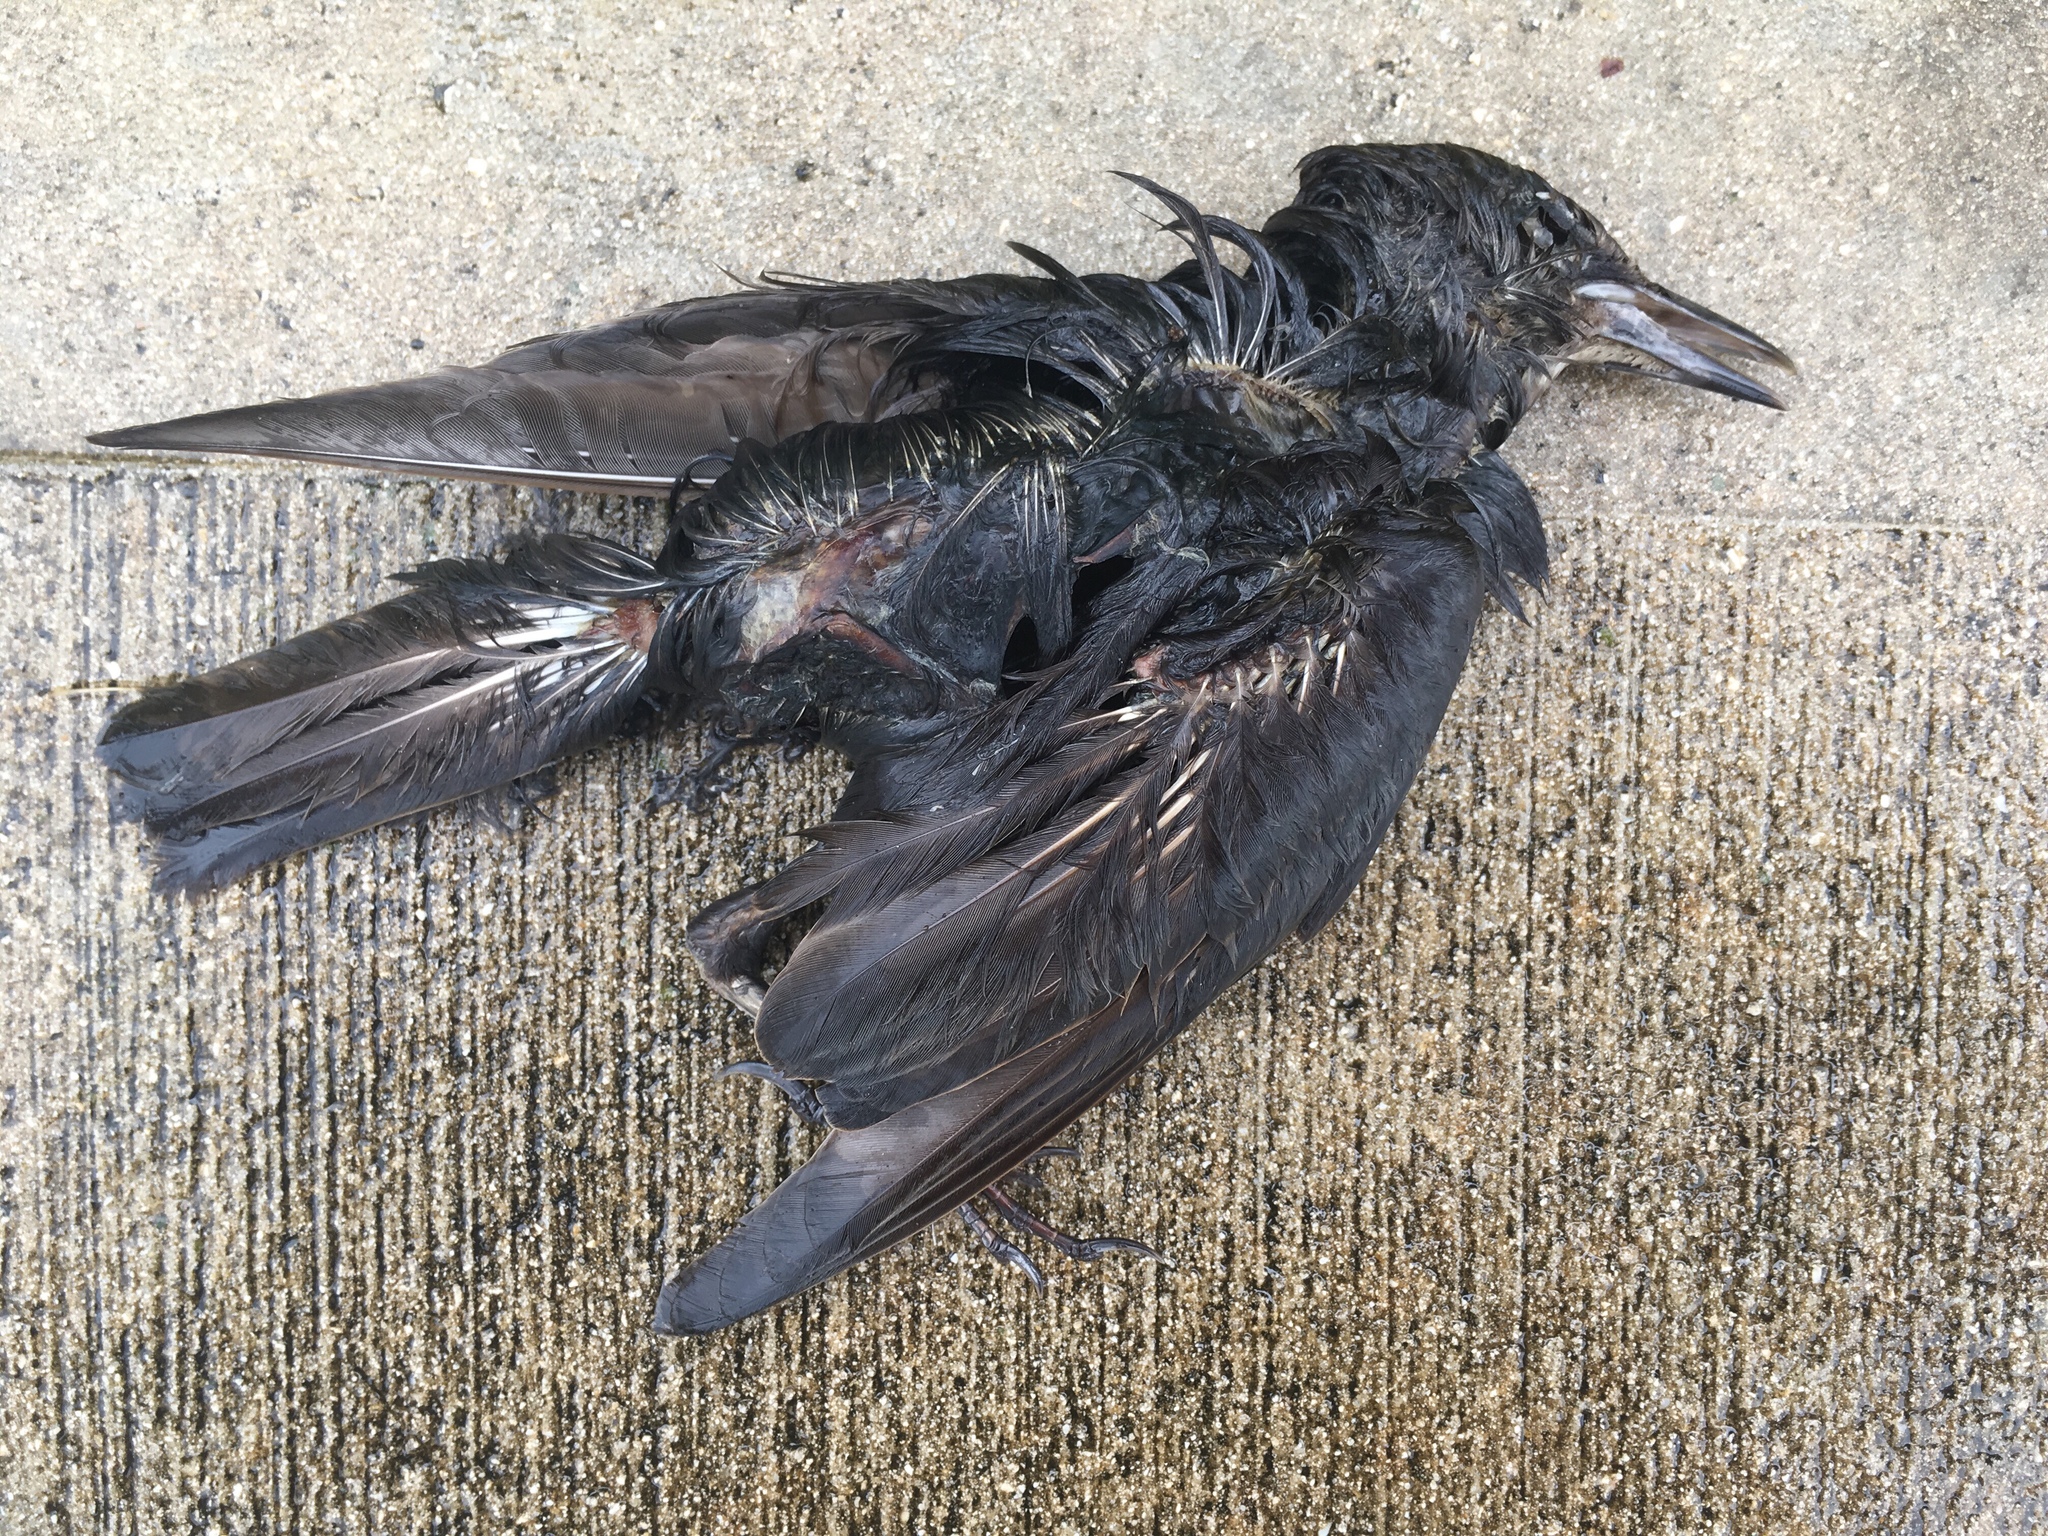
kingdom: Animalia
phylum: Chordata
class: Aves
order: Passeriformes
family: Sturnidae
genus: Sturnus
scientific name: Sturnus vulgaris
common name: Common starling
